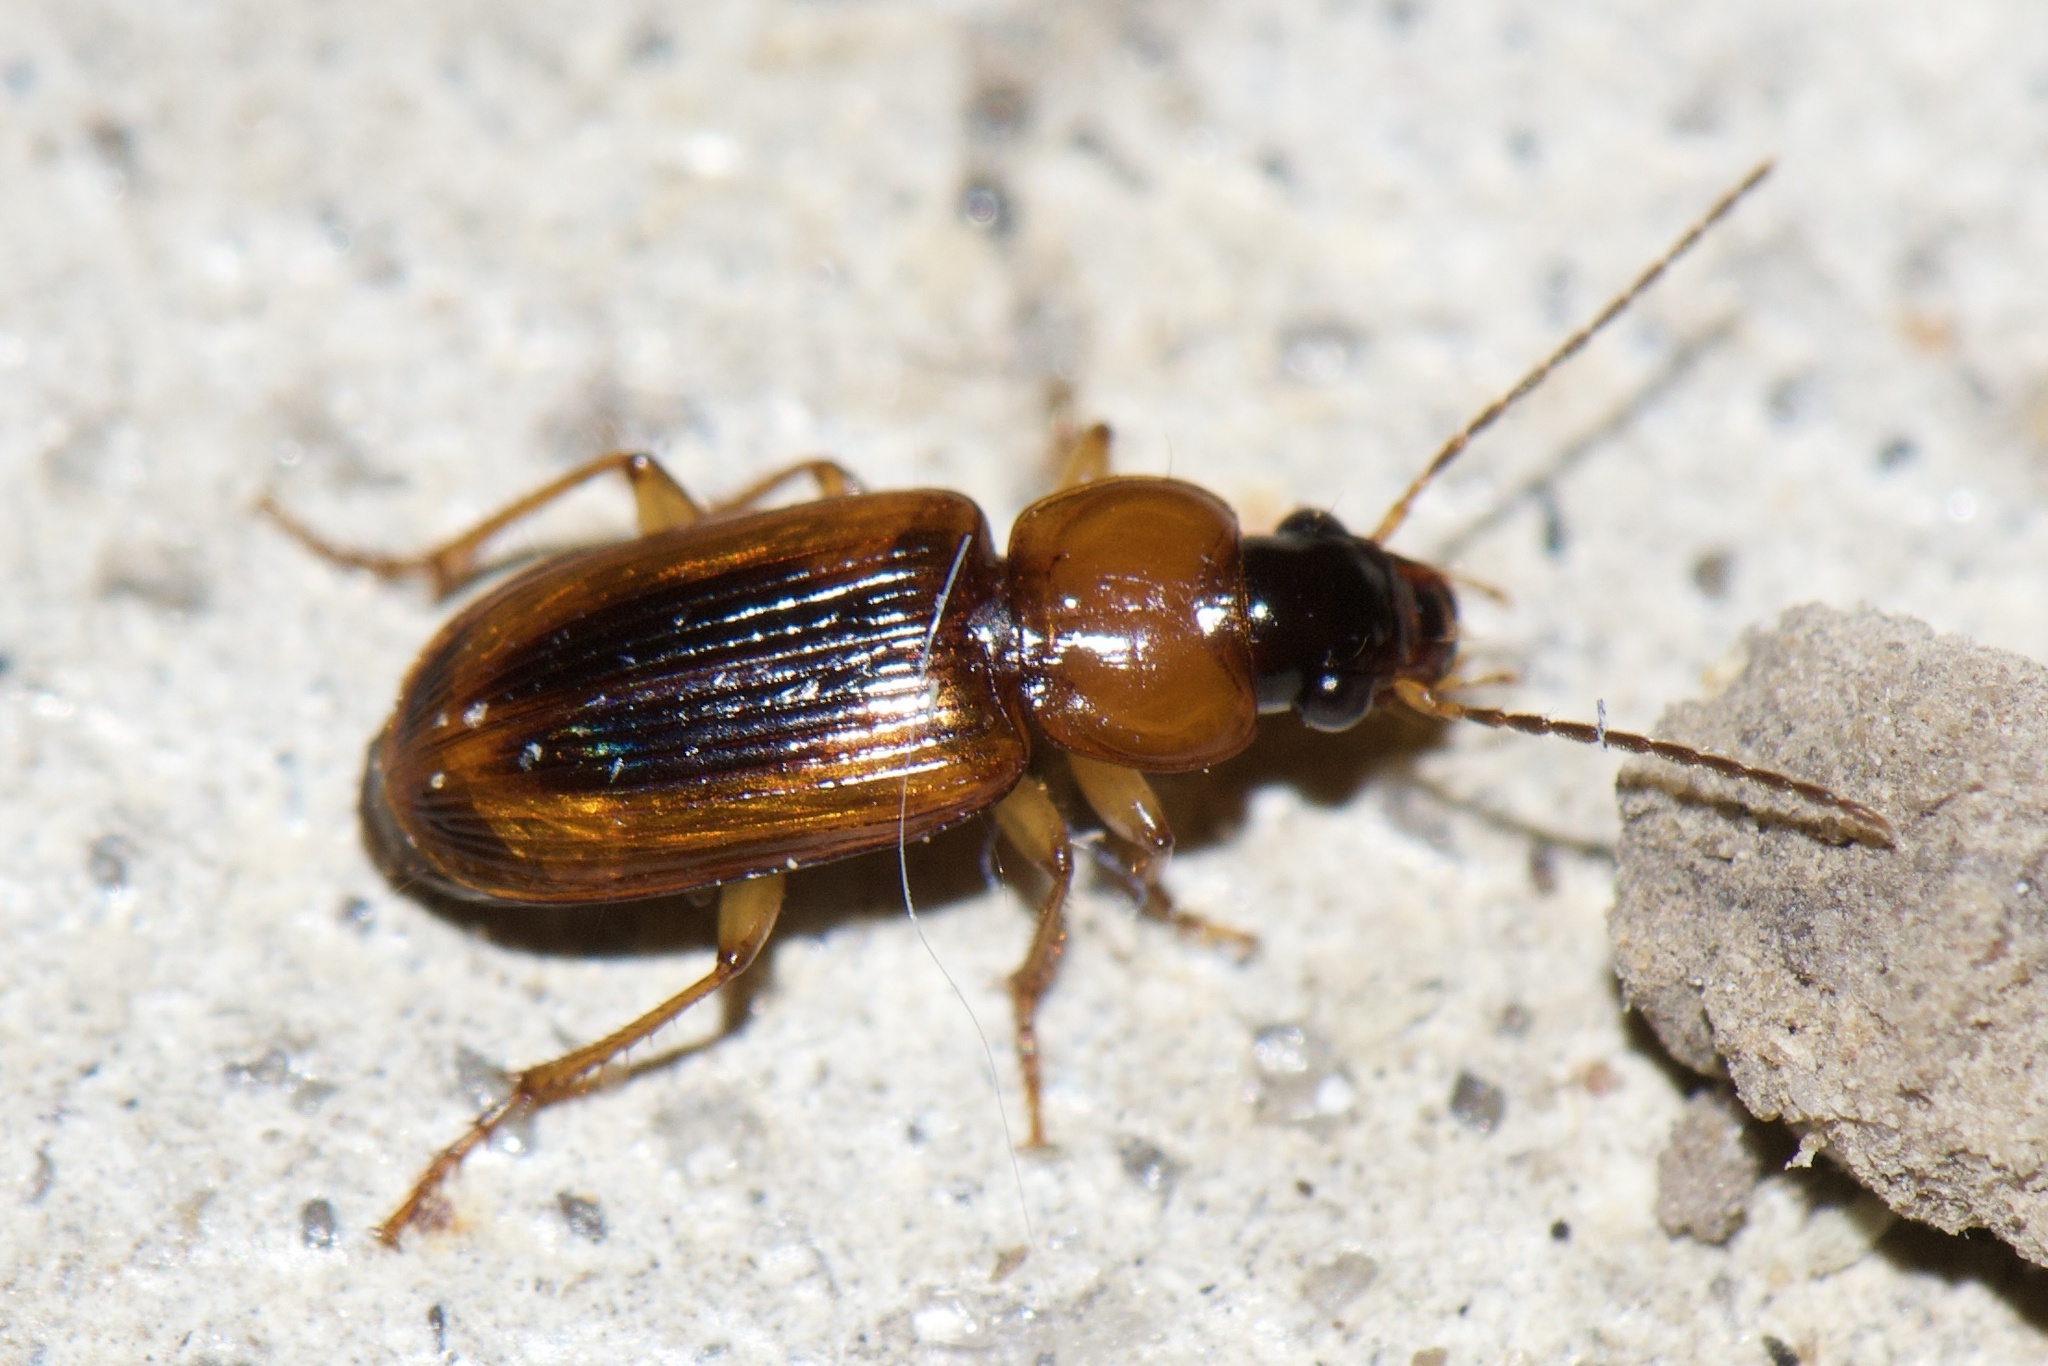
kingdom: Animalia
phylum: Arthropoda
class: Insecta
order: Coleoptera
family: Carabidae
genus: Stenolophus
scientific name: Stenolophus dissimilis
